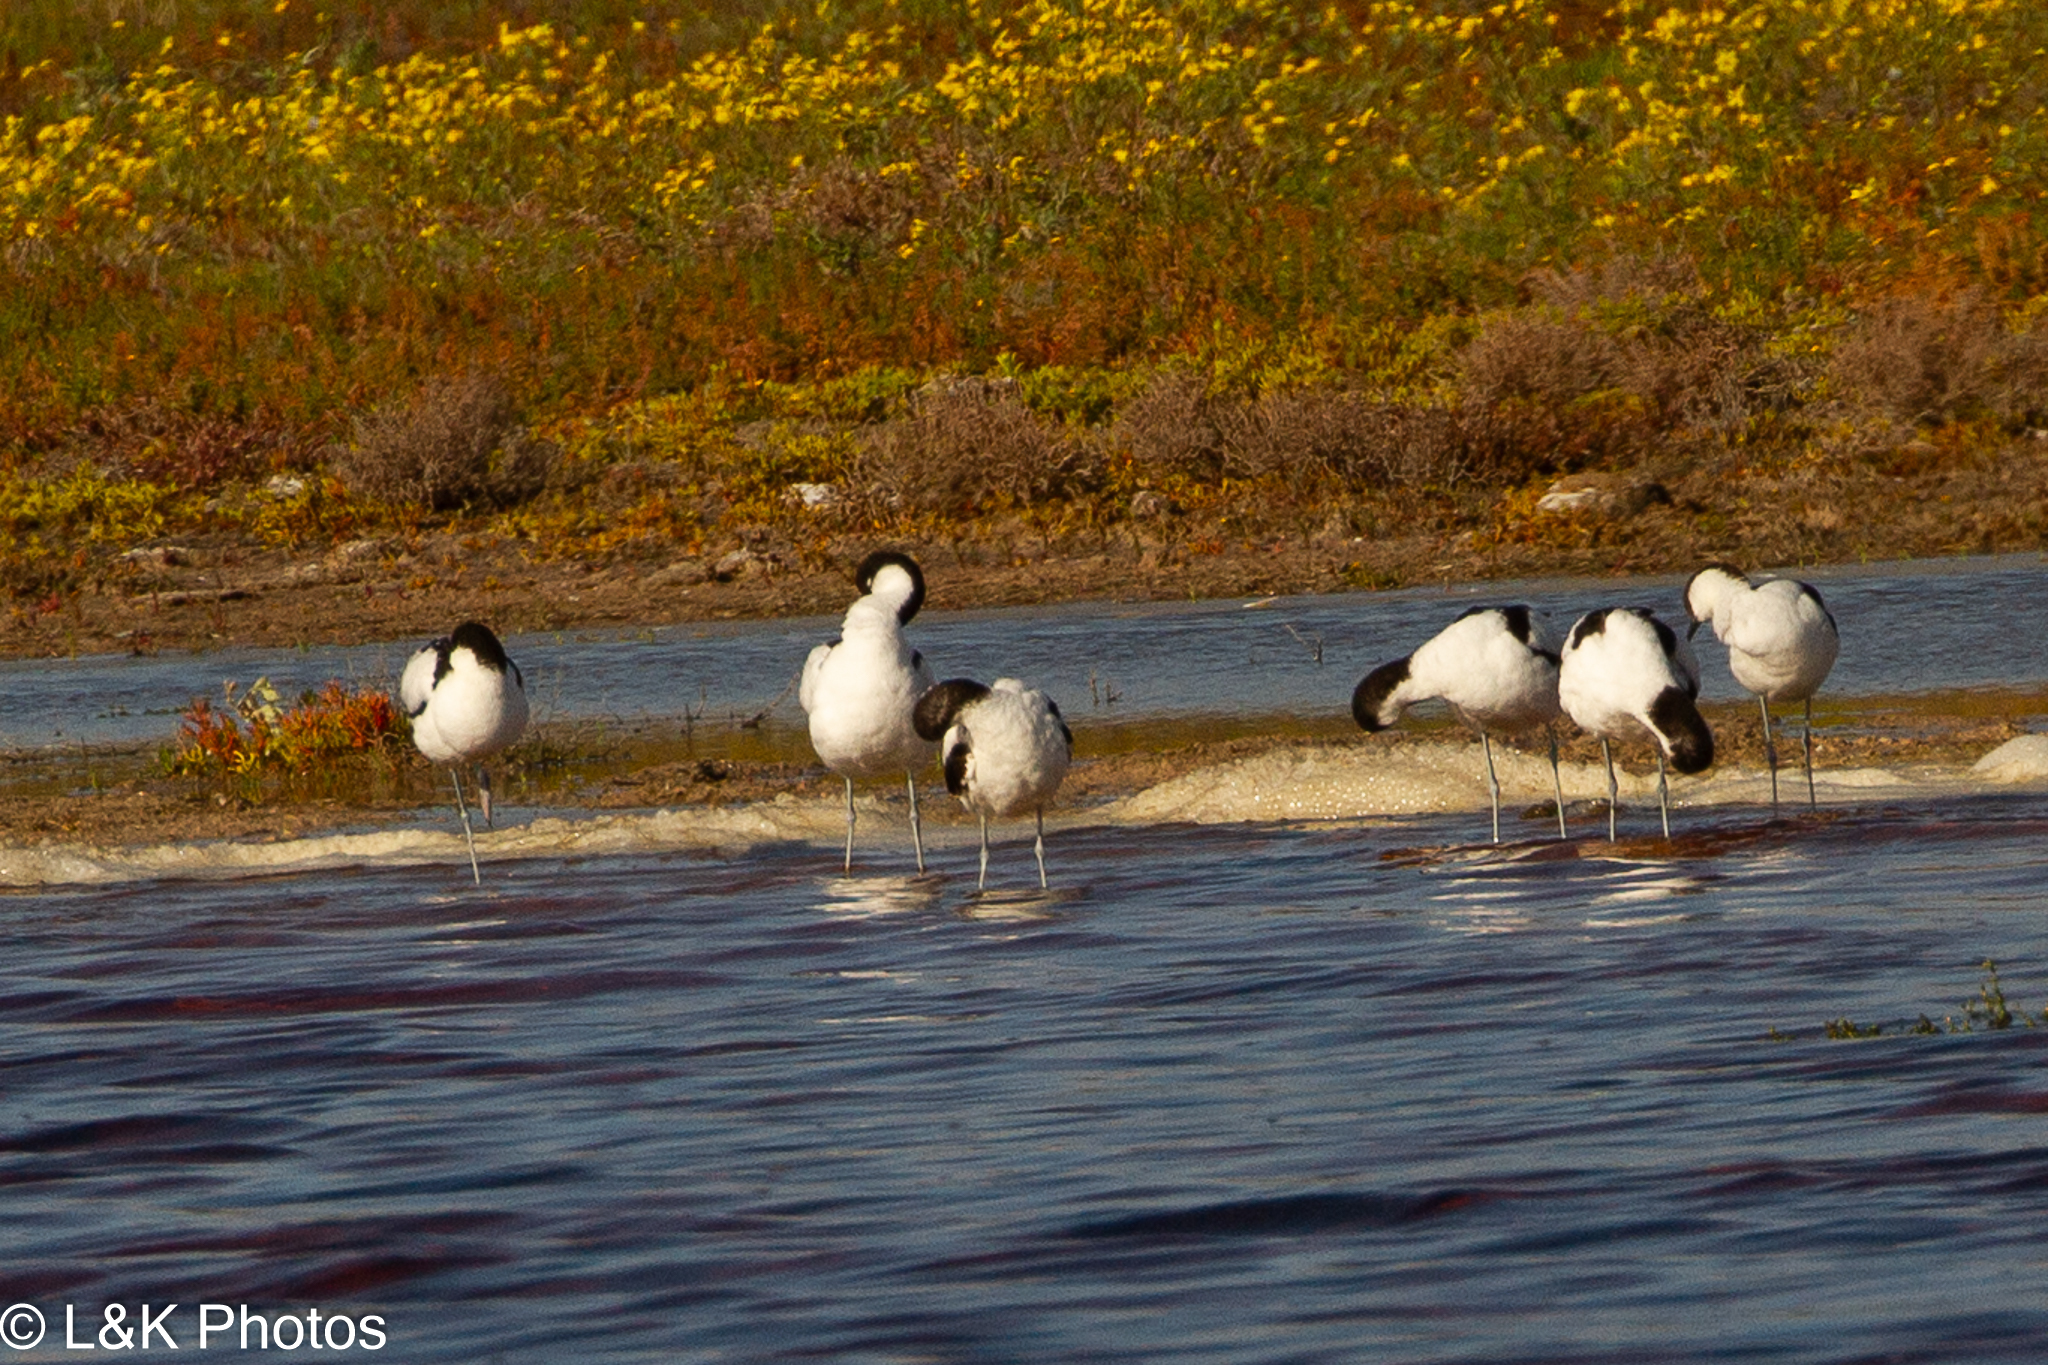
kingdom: Animalia
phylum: Chordata
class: Aves
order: Charadriiformes
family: Recurvirostridae
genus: Recurvirostra
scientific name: Recurvirostra avosetta
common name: Pied avocet
